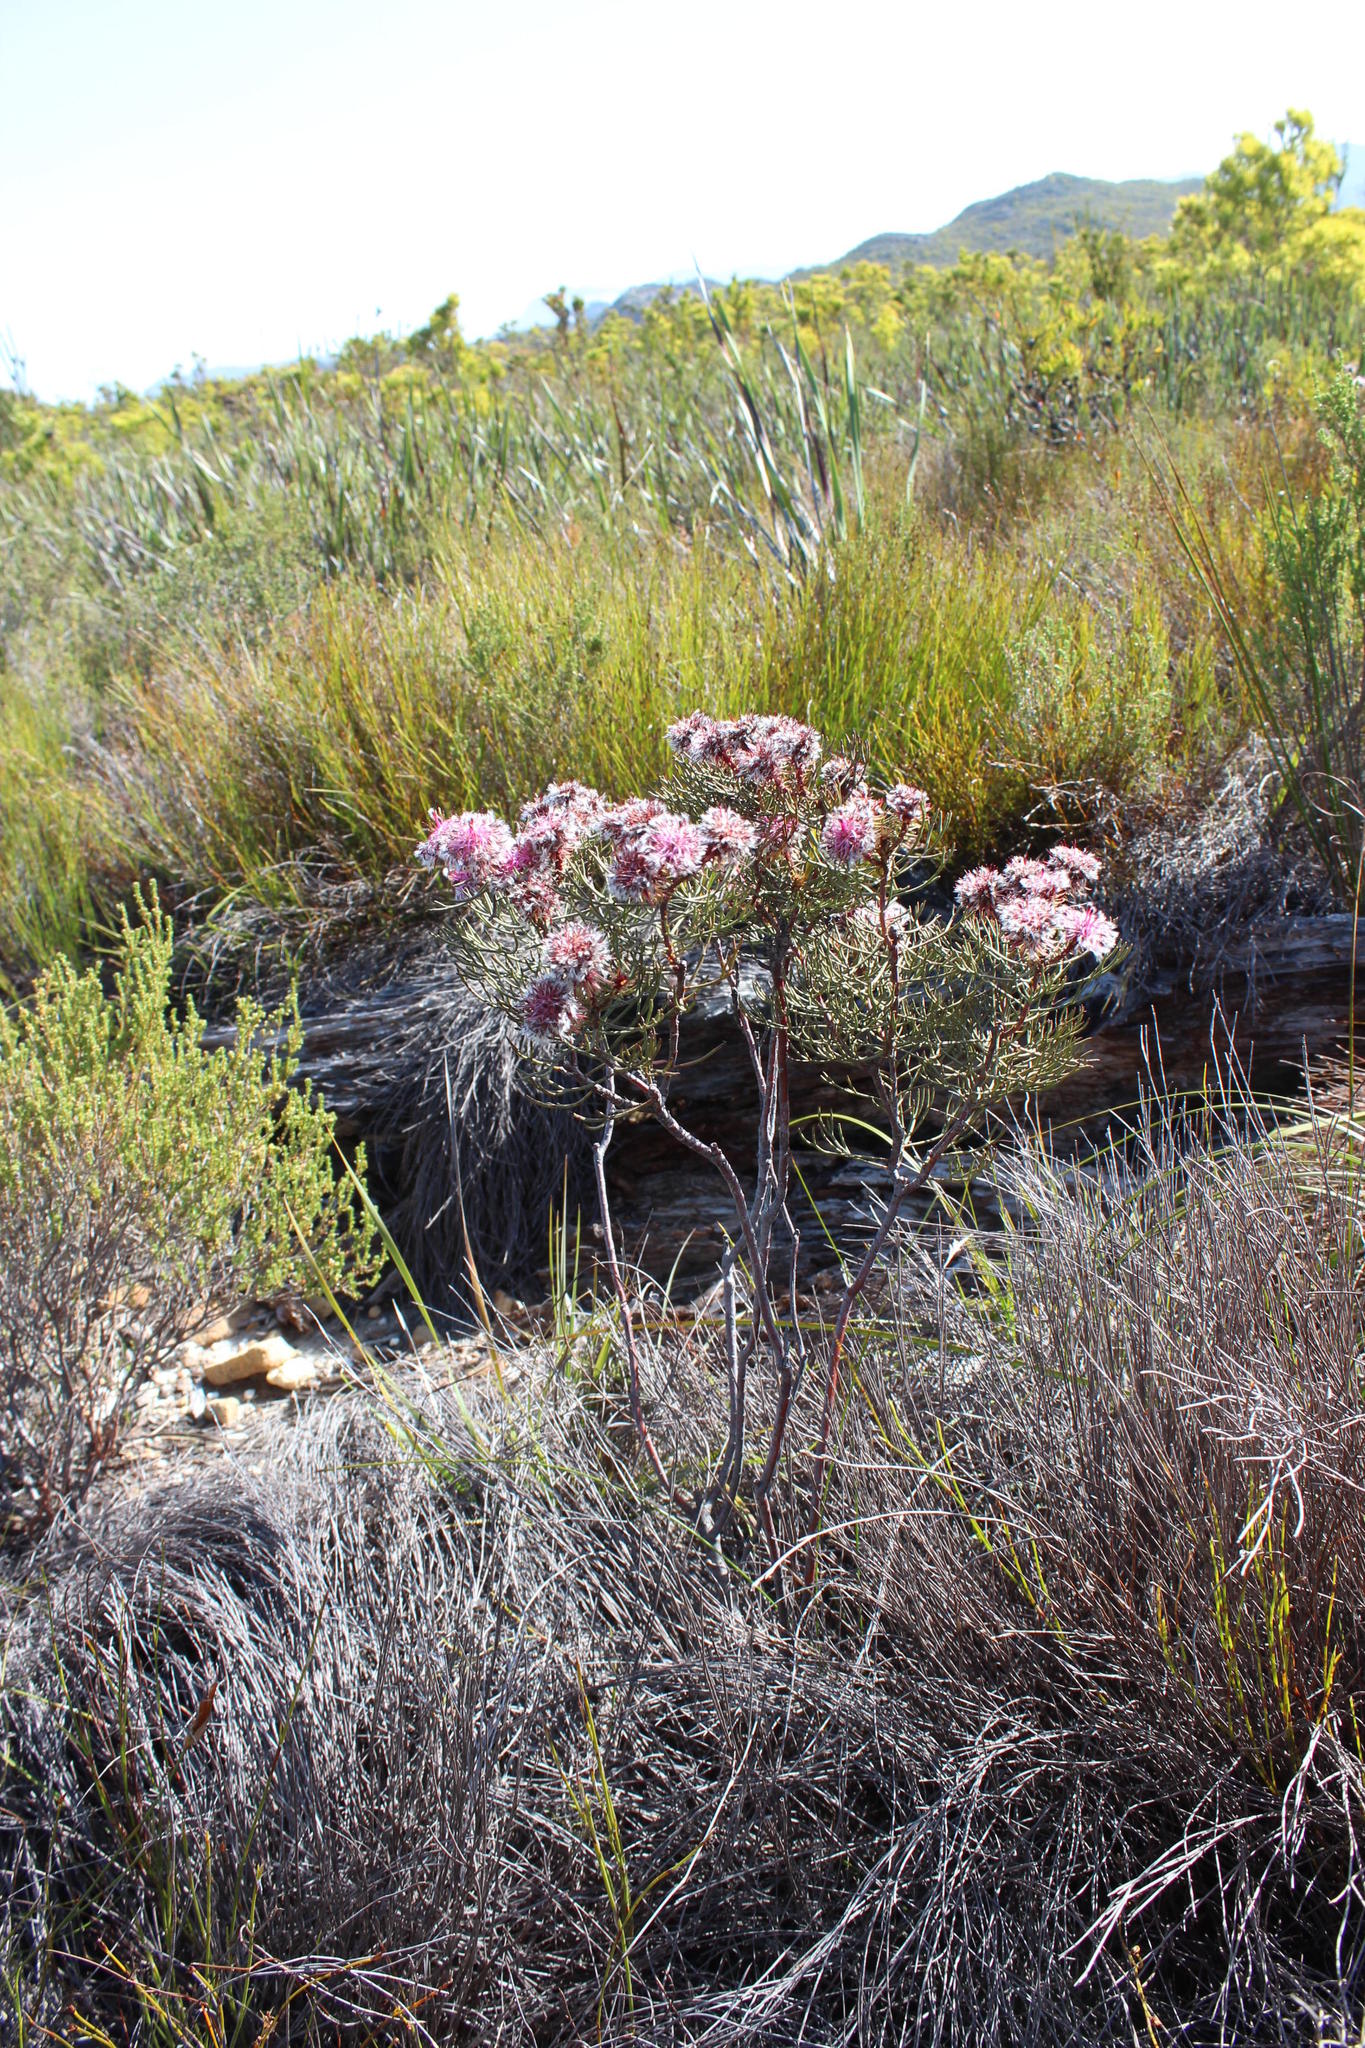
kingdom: Plantae
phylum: Tracheophyta
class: Magnoliopsida
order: Proteales
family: Proteaceae
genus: Serruria
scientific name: Serruria phylicoides
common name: Bearded spiderhead
